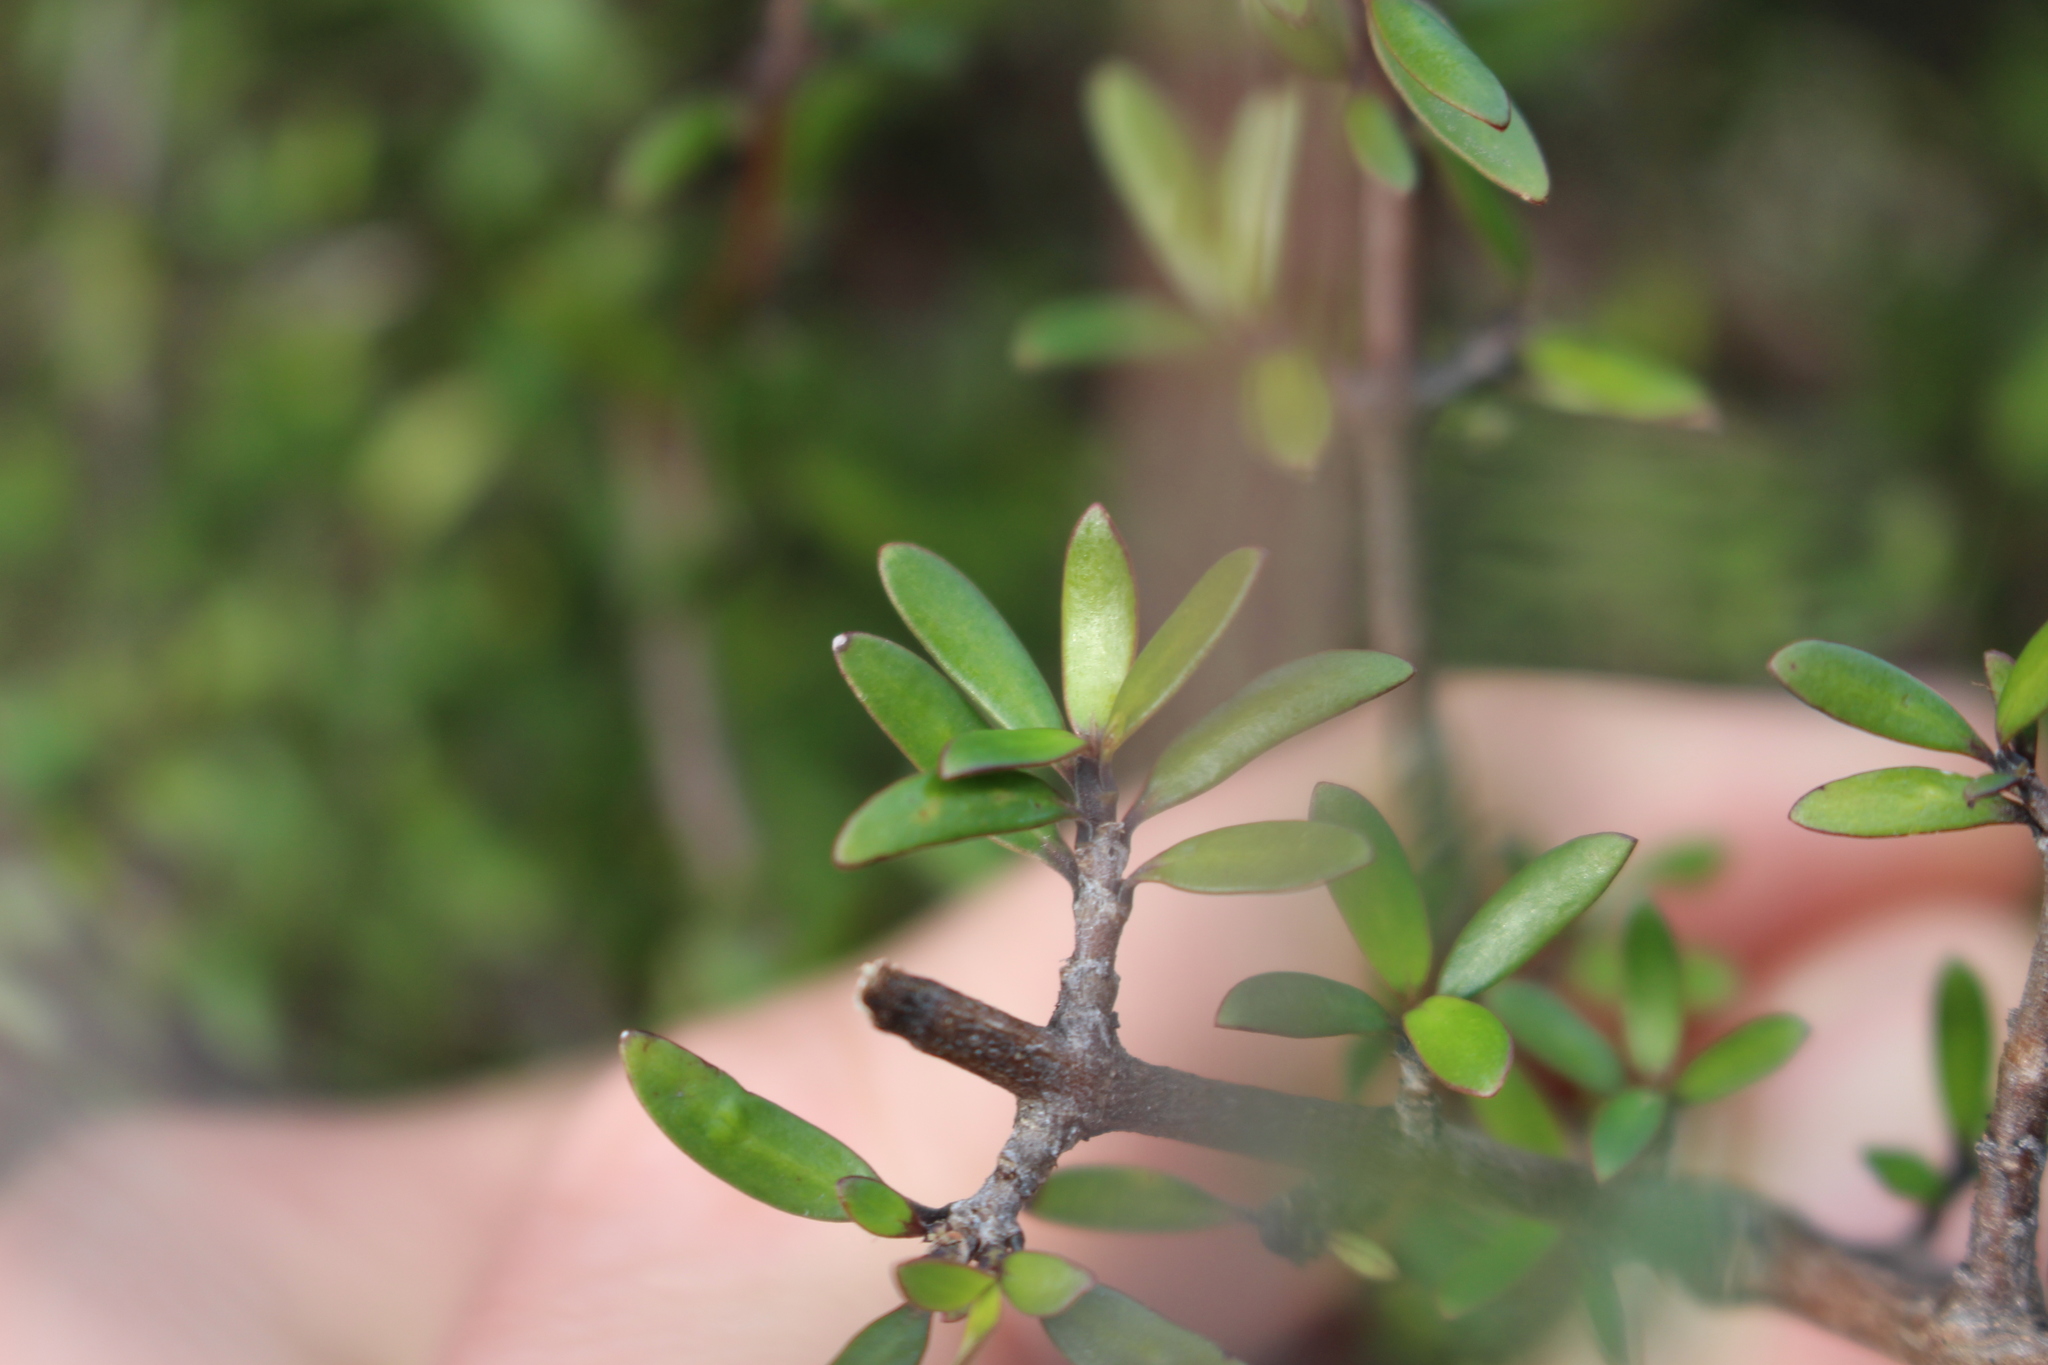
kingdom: Plantae
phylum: Tracheophyta
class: Magnoliopsida
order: Gentianales
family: Rubiaceae
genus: Coprosma
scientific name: Coprosma propinqua
